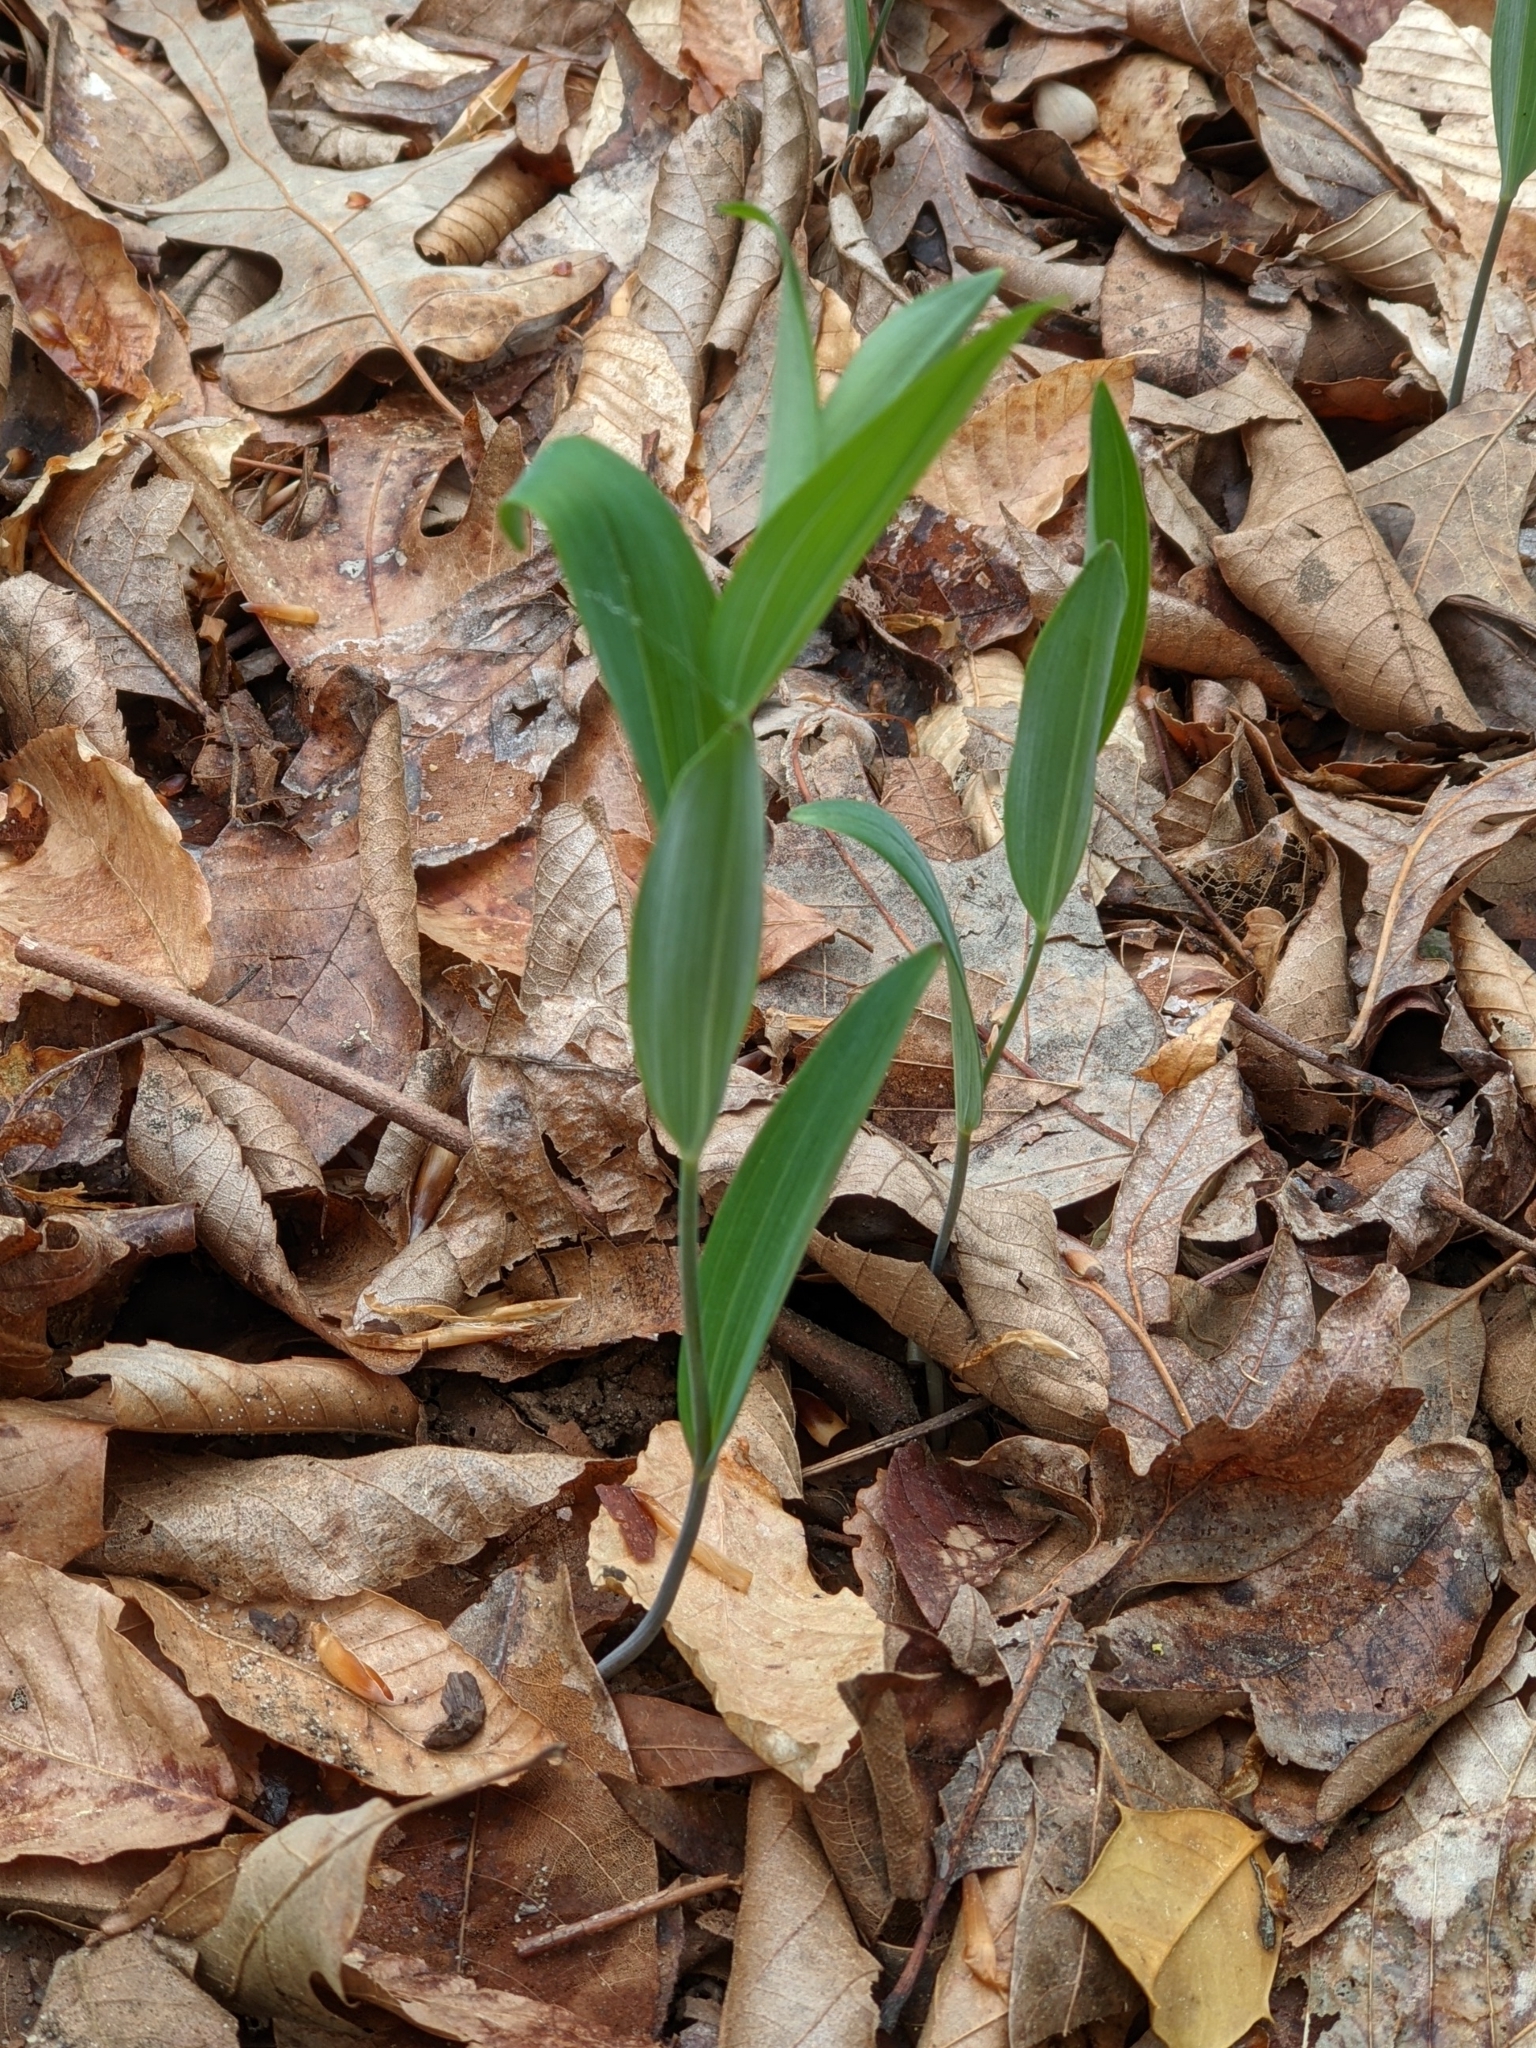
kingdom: Plantae
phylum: Tracheophyta
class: Liliopsida
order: Asparagales
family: Asparagaceae
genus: Polygonatum
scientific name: Polygonatum biflorum
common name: American solomon's-seal
